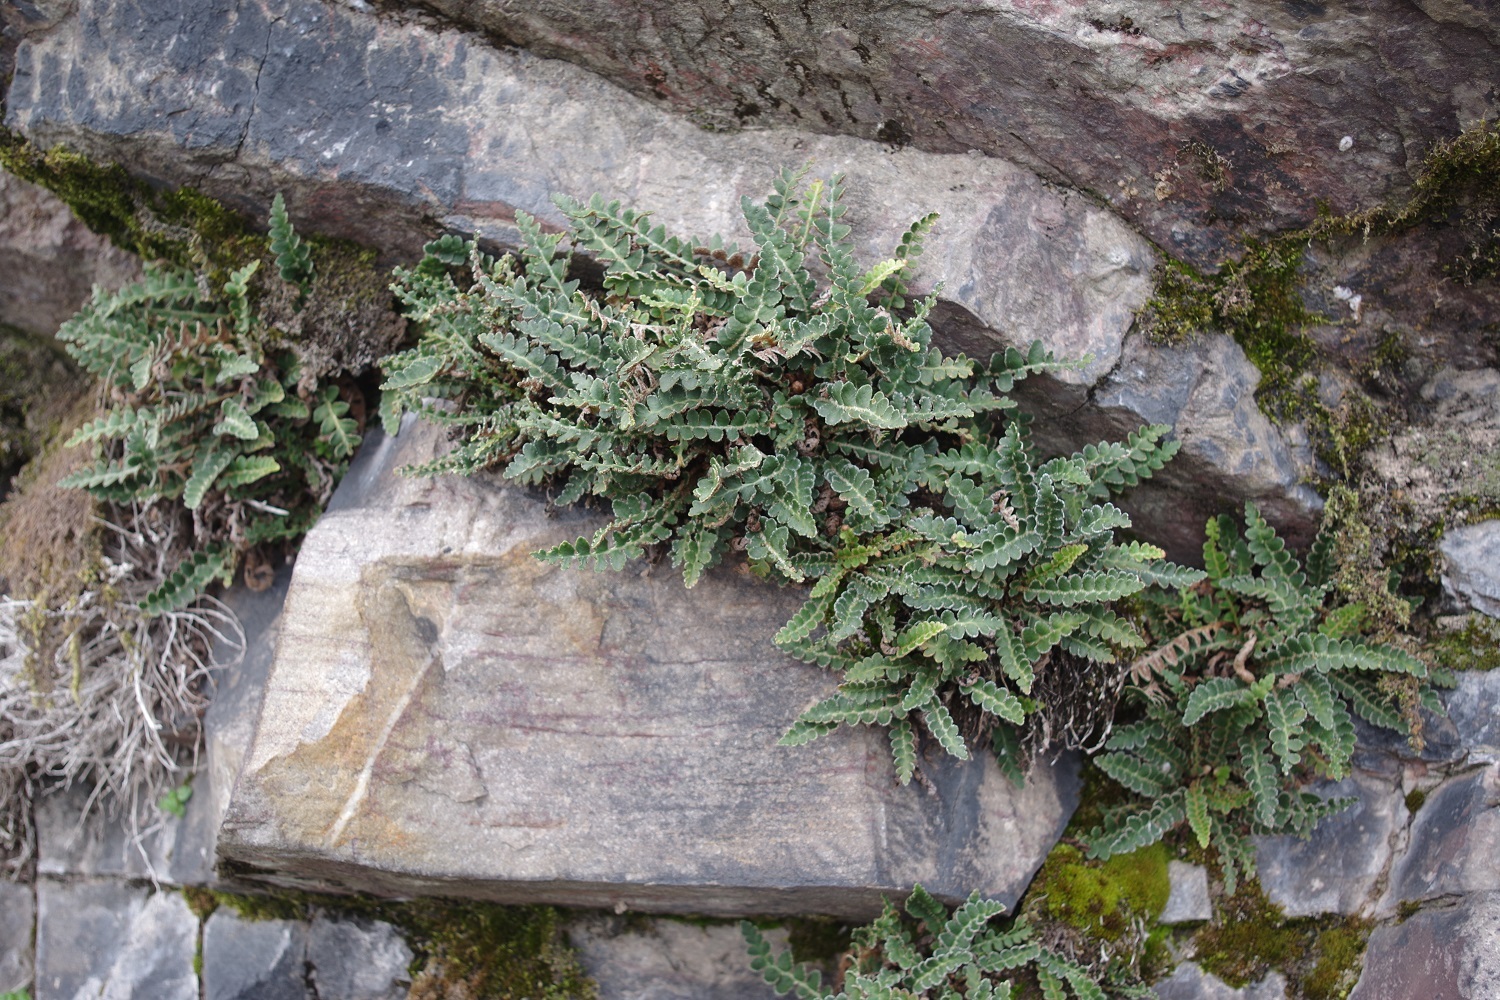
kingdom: Plantae
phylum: Tracheophyta
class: Polypodiopsida
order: Polypodiales
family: Aspleniaceae
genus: Asplenium
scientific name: Asplenium ceterach
